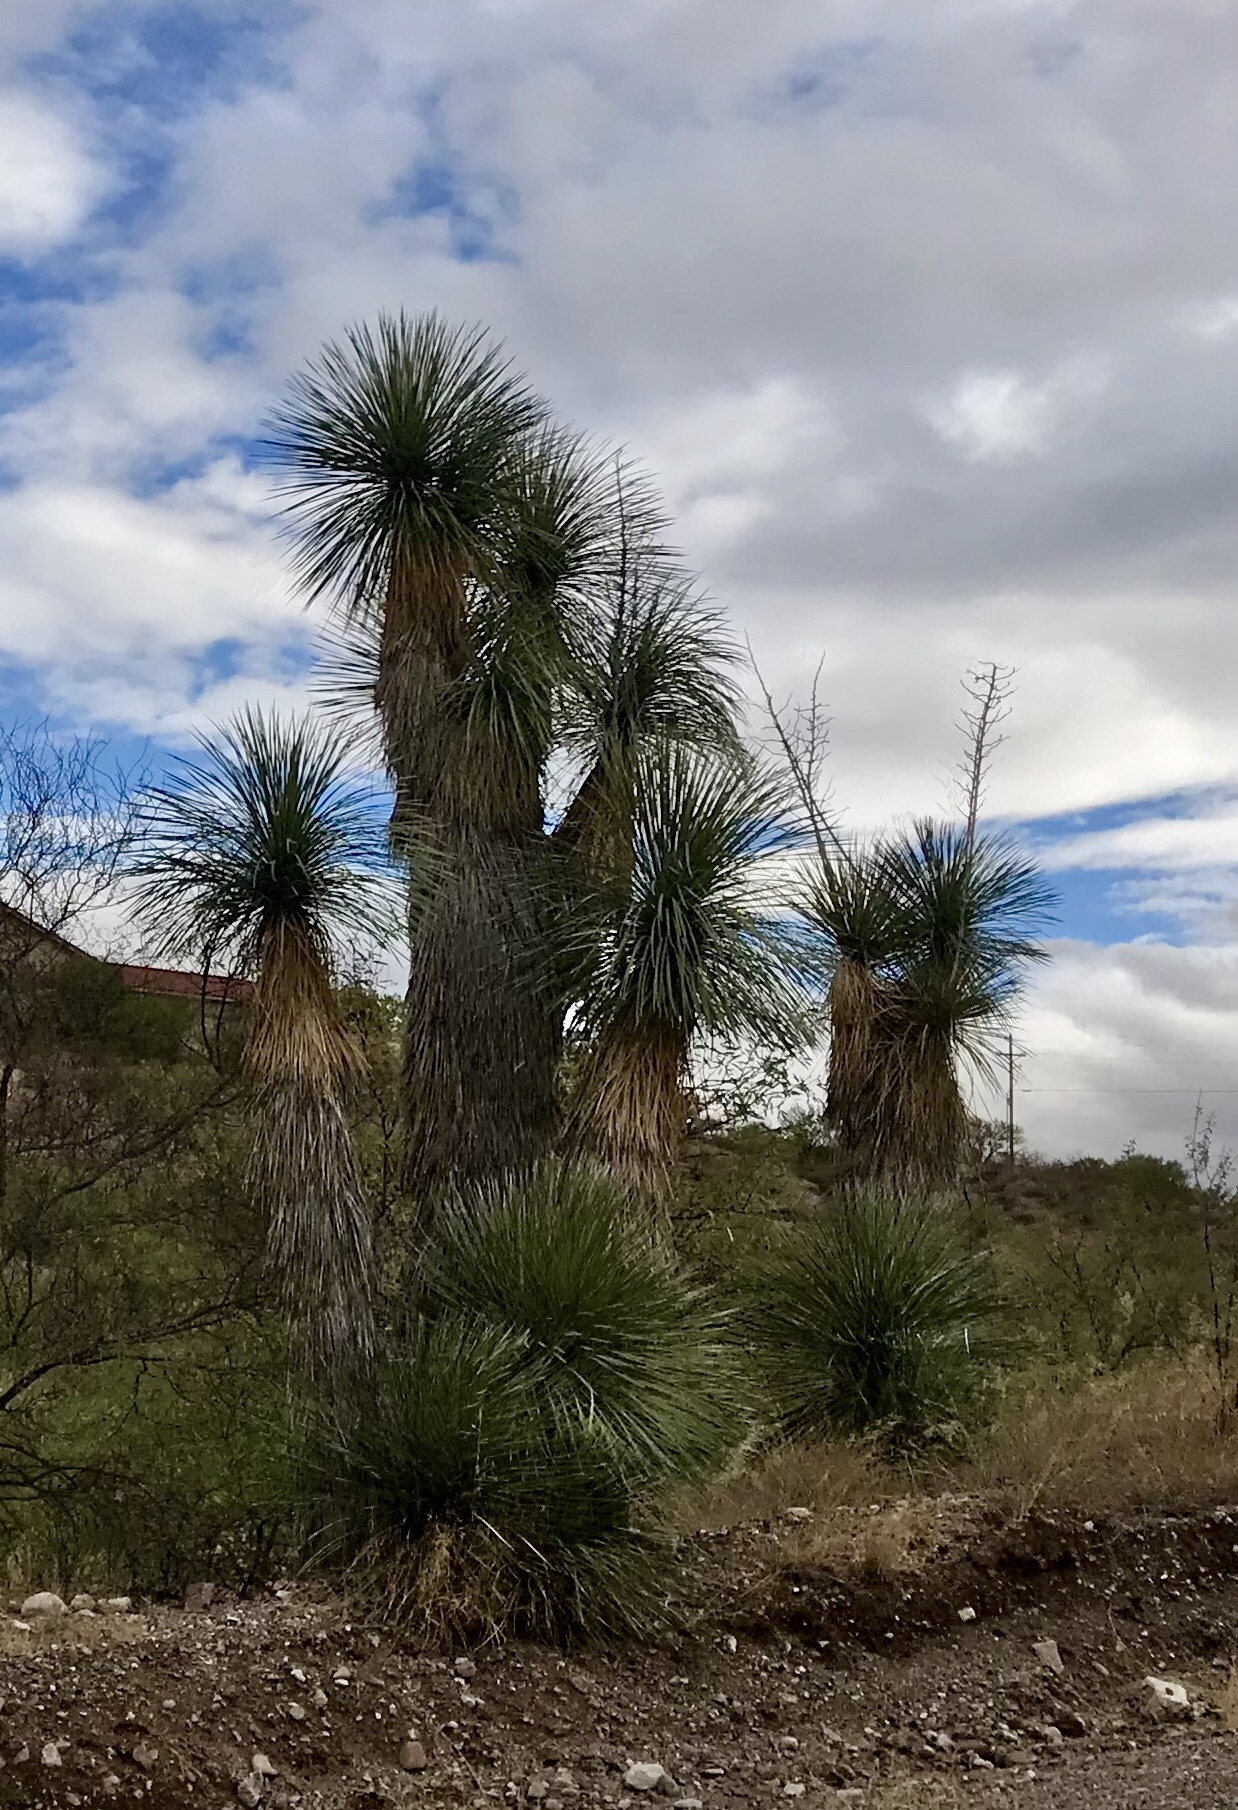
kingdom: Plantae
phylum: Tracheophyta
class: Liliopsida
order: Asparagales
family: Asparagaceae
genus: Yucca
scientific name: Yucca elata
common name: Palmella
